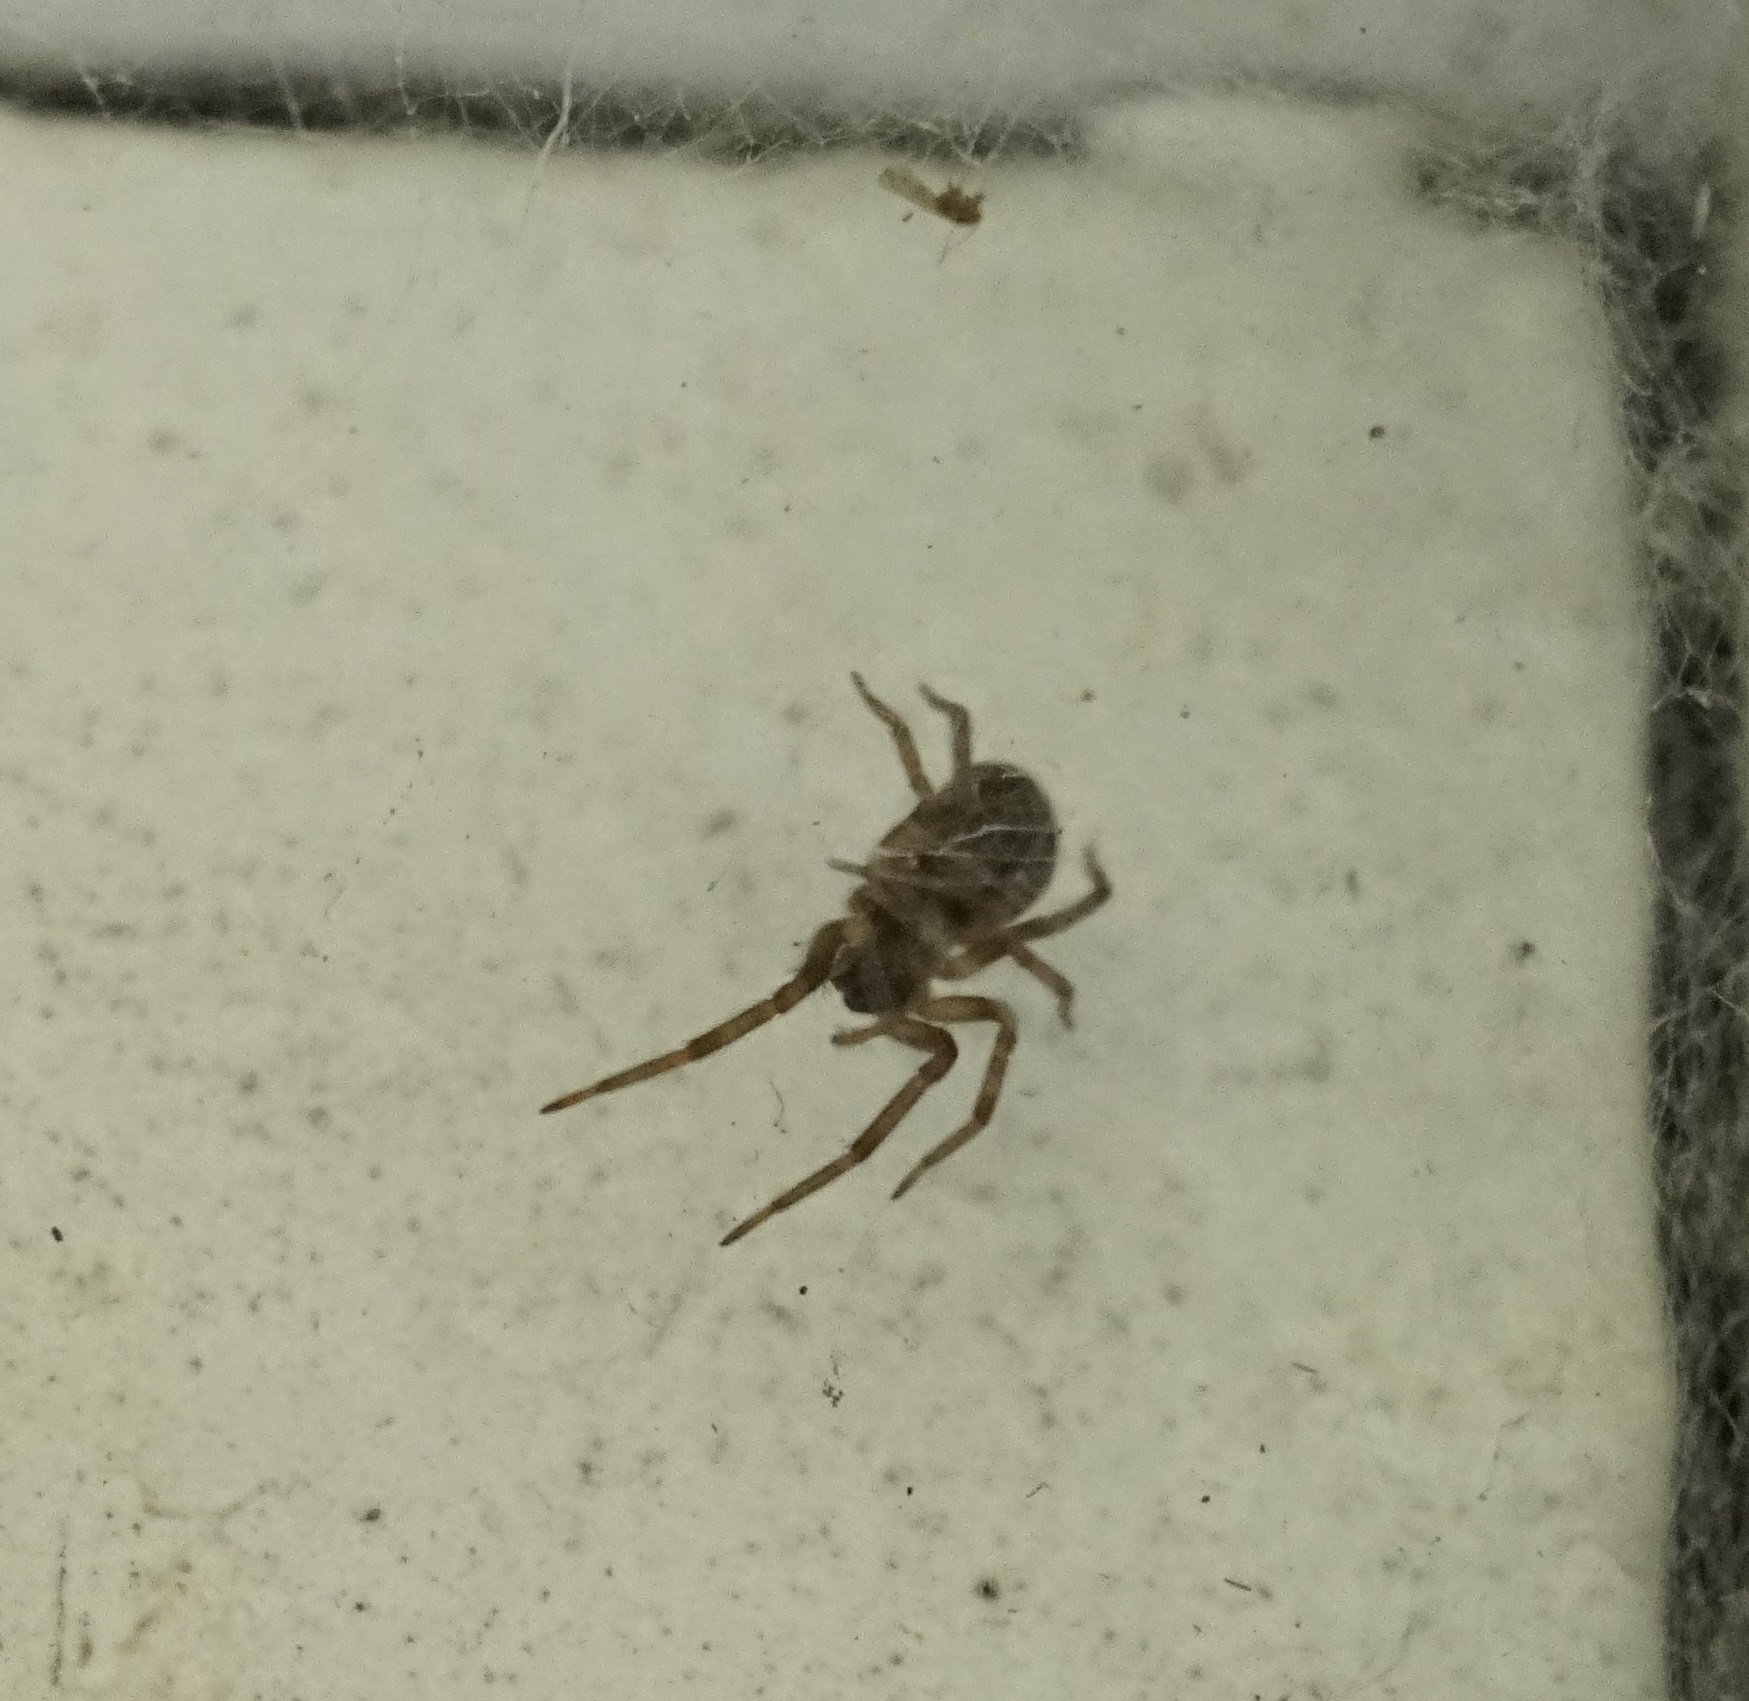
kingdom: Animalia
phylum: Arthropoda
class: Arachnida
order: Araneae
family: Desidae
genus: Badumna
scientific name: Badumna longinqua
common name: Gray house spider
